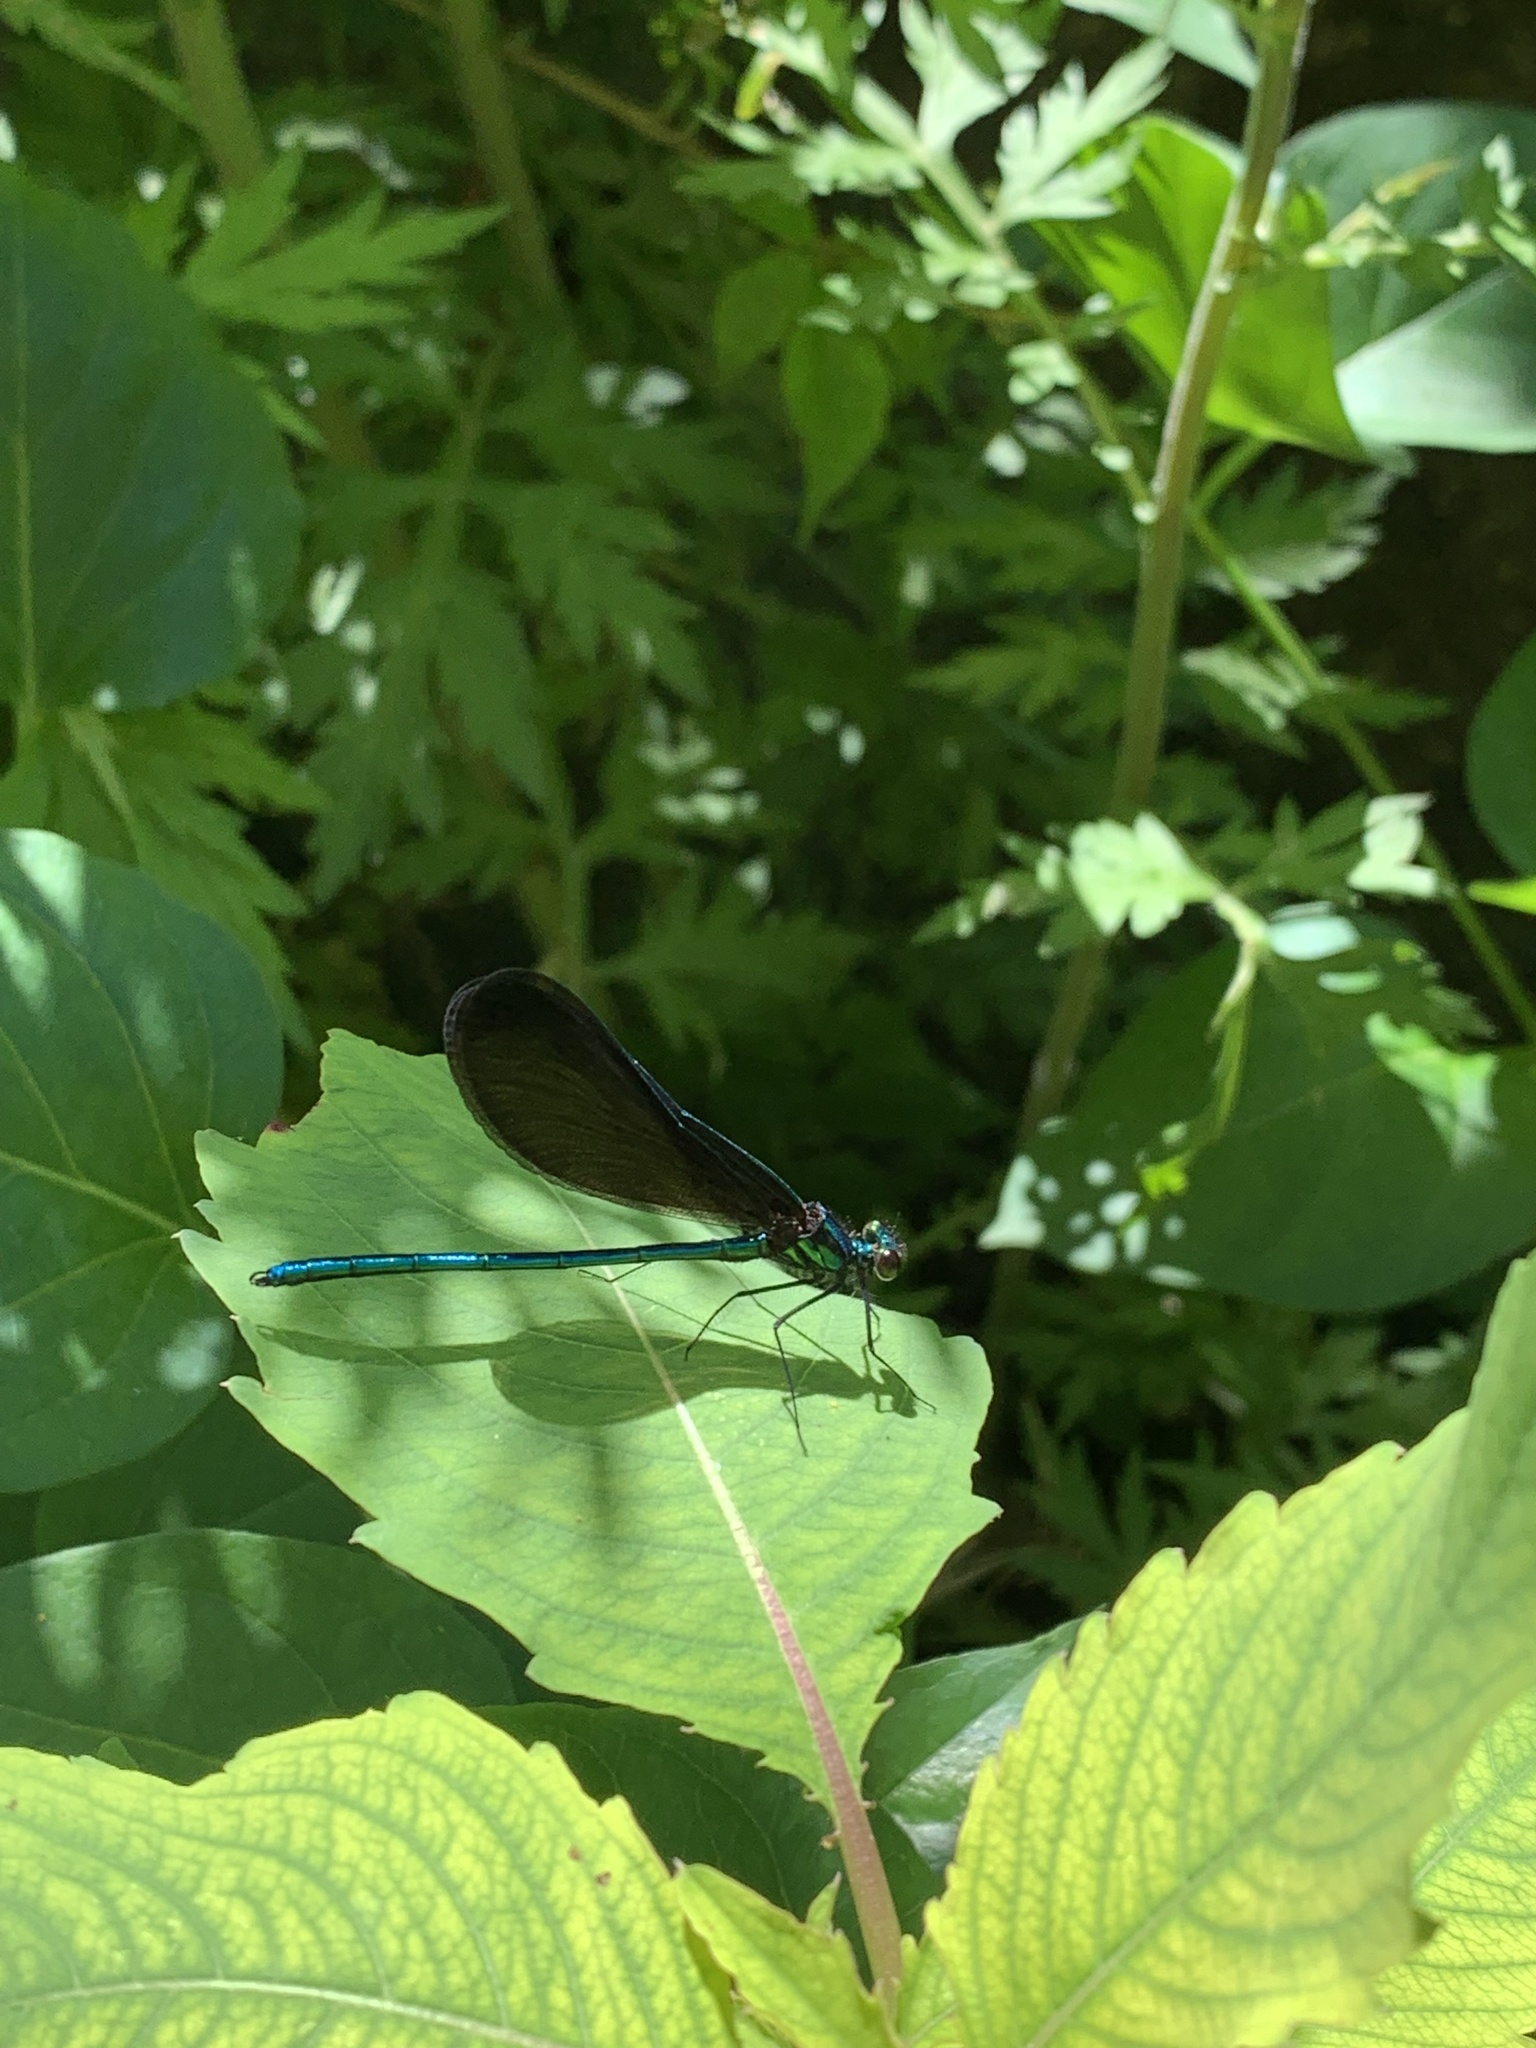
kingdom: Animalia
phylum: Arthropoda
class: Insecta
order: Odonata
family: Calopterygidae
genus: Calopteryx
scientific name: Calopteryx maculata
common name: Ebony jewelwing
